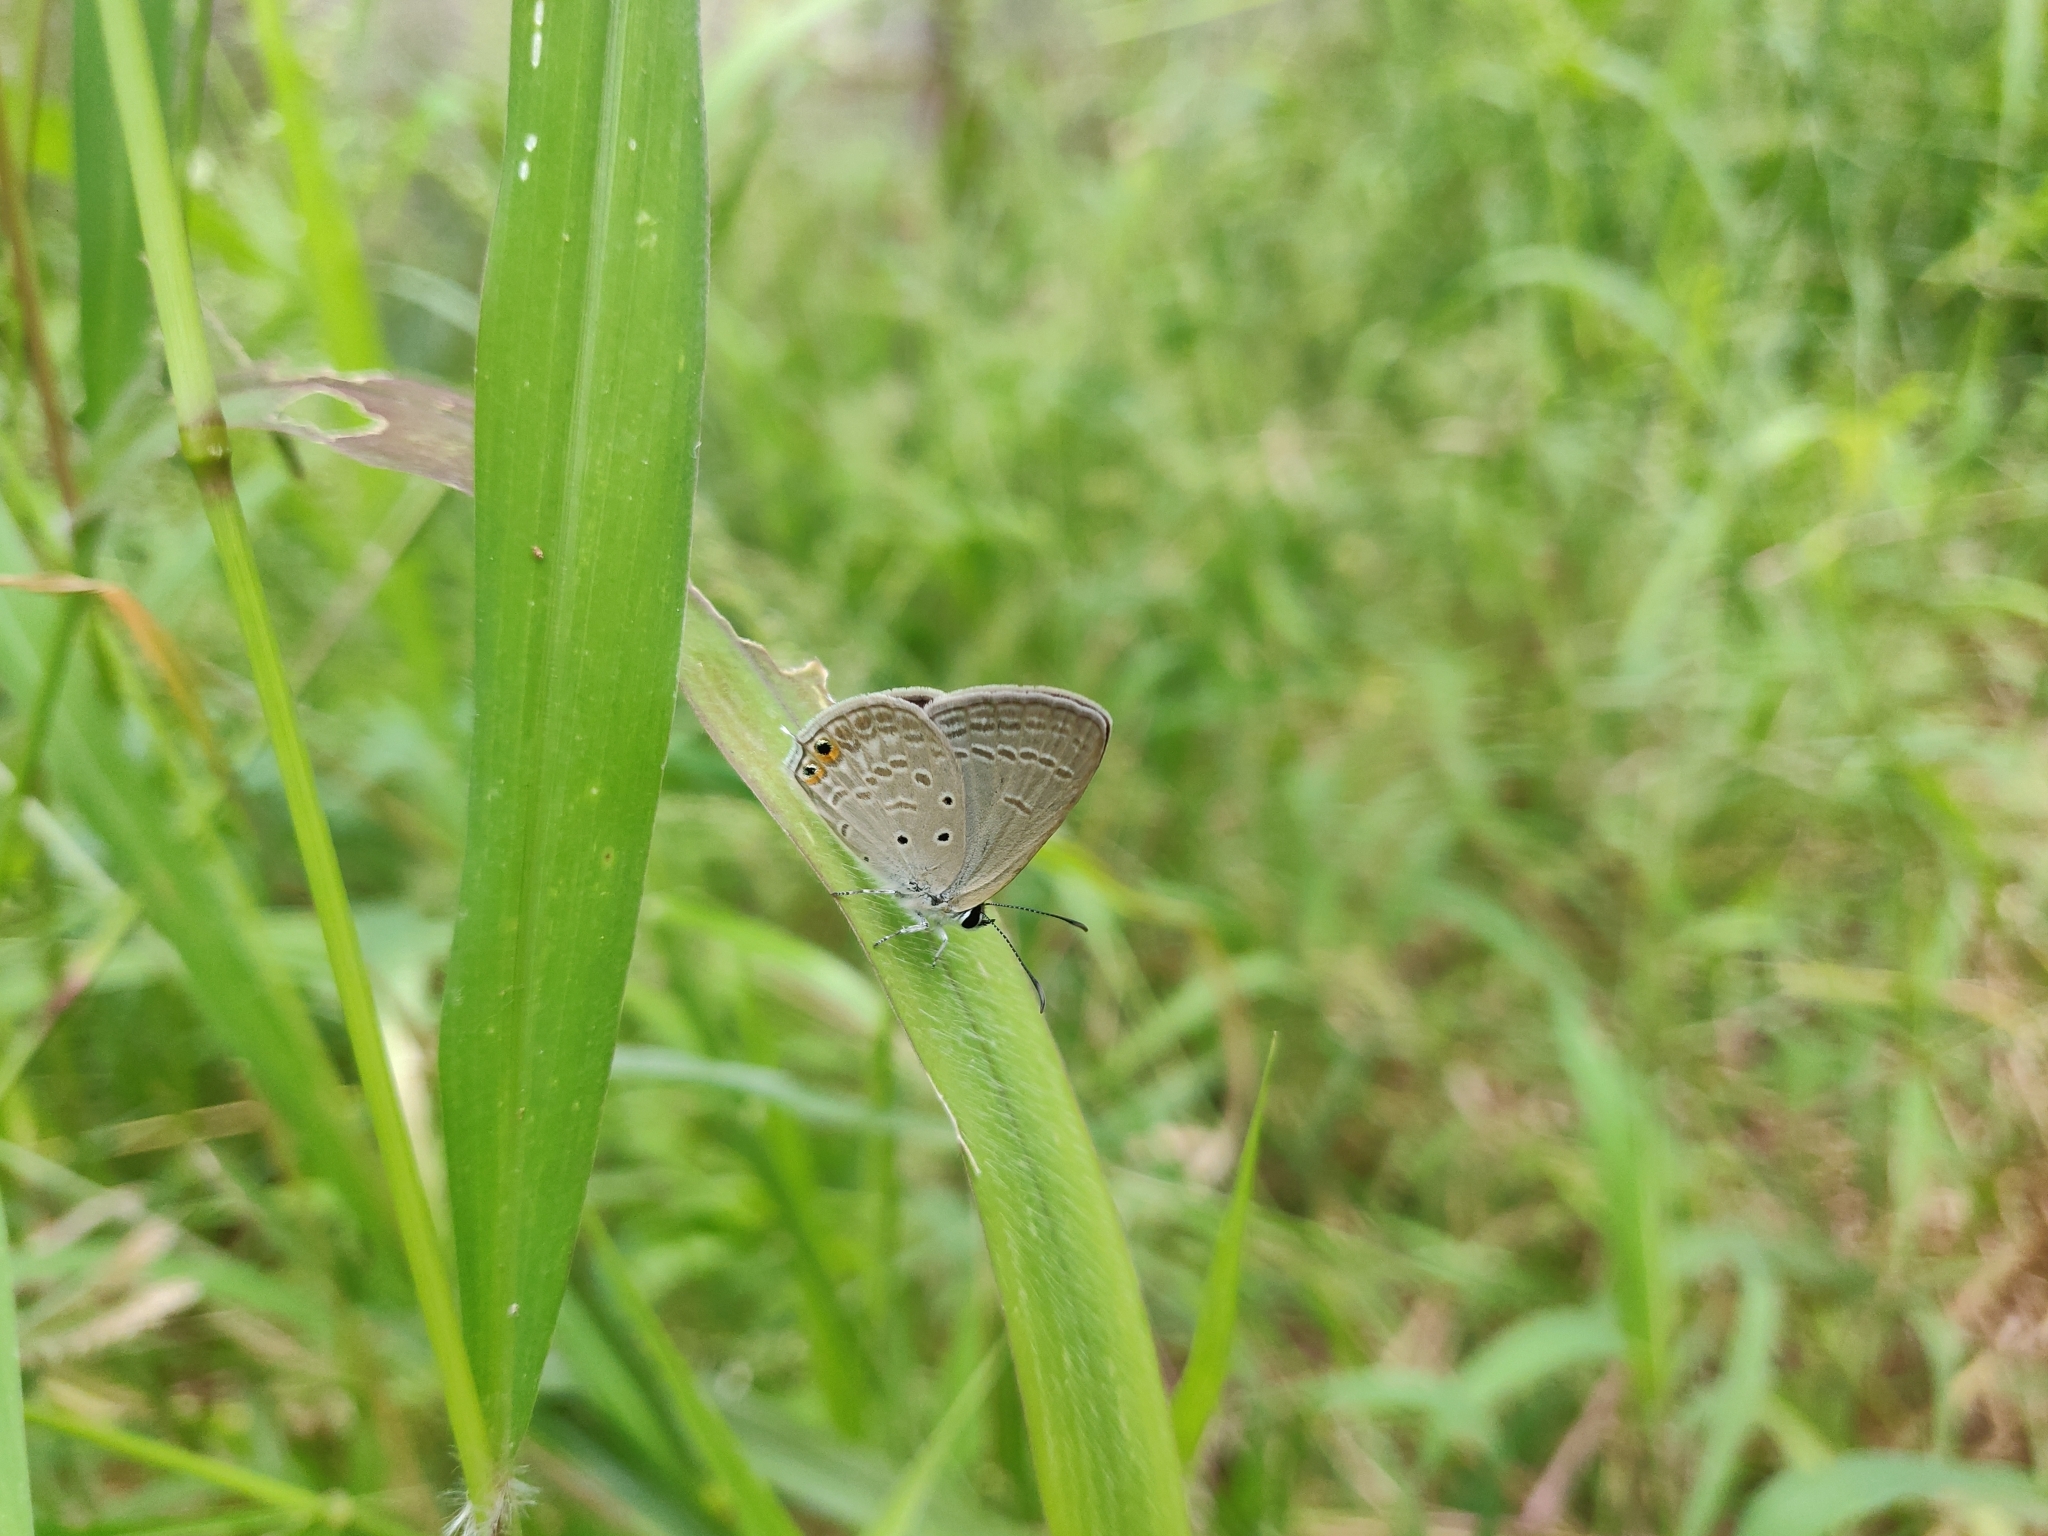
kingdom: Animalia
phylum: Arthropoda
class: Insecta
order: Lepidoptera
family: Lycaenidae
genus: Euchrysops
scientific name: Euchrysops cnejus
